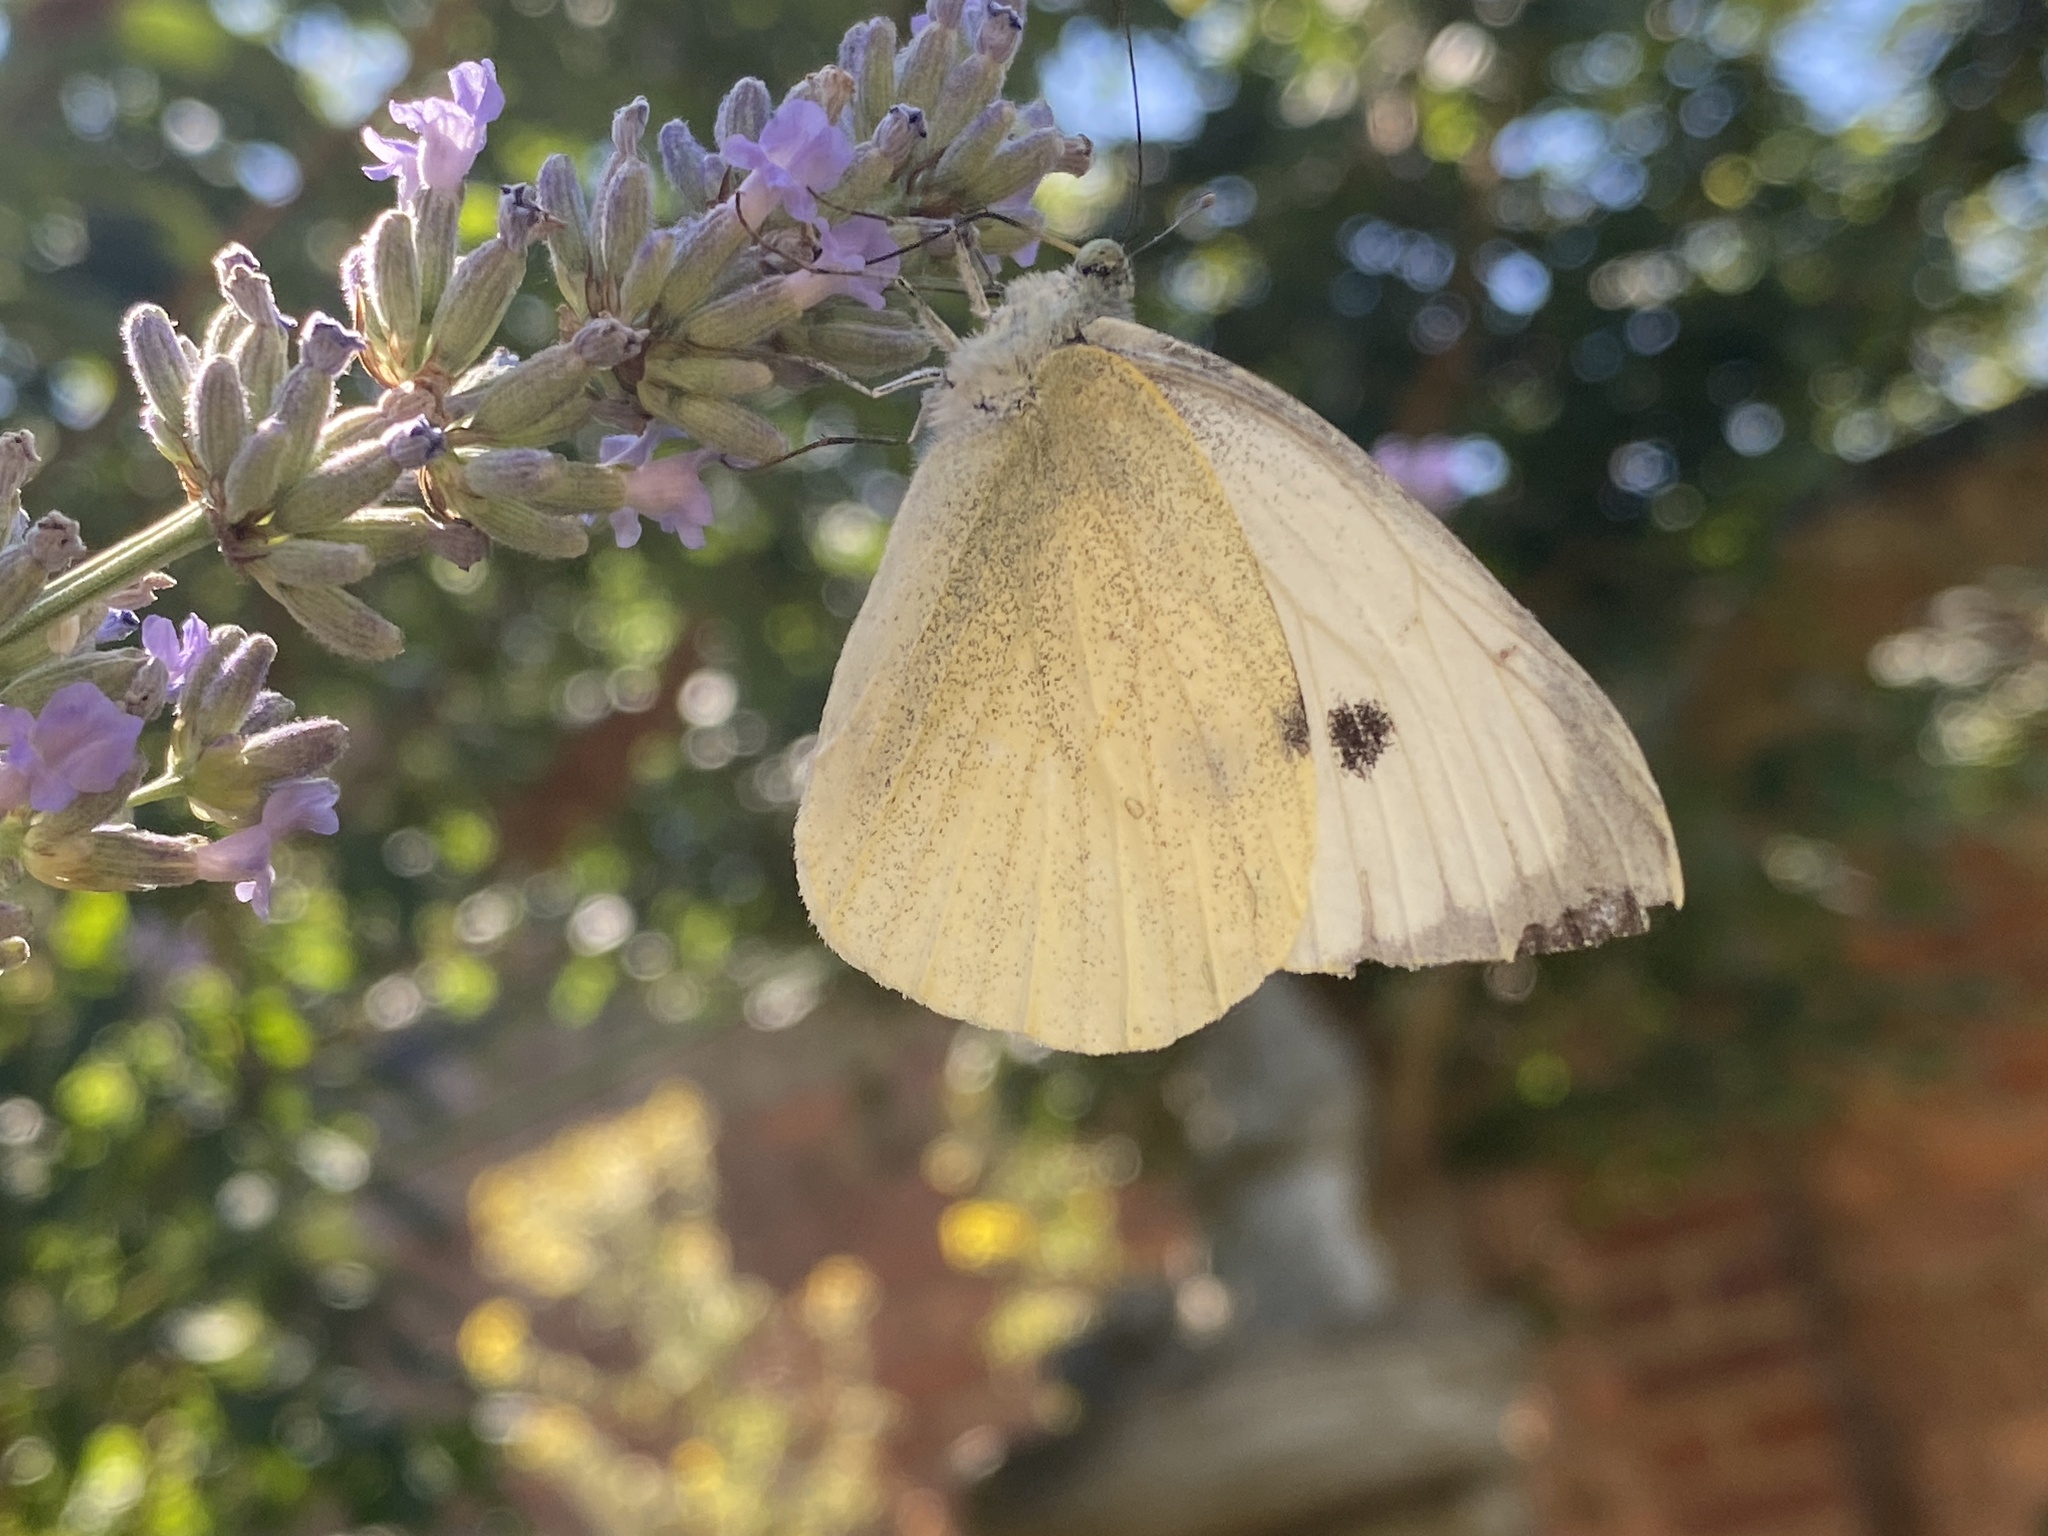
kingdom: Animalia
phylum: Arthropoda
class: Insecta
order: Lepidoptera
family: Pieridae
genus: Pieris
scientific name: Pieris brassicae
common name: Large white
